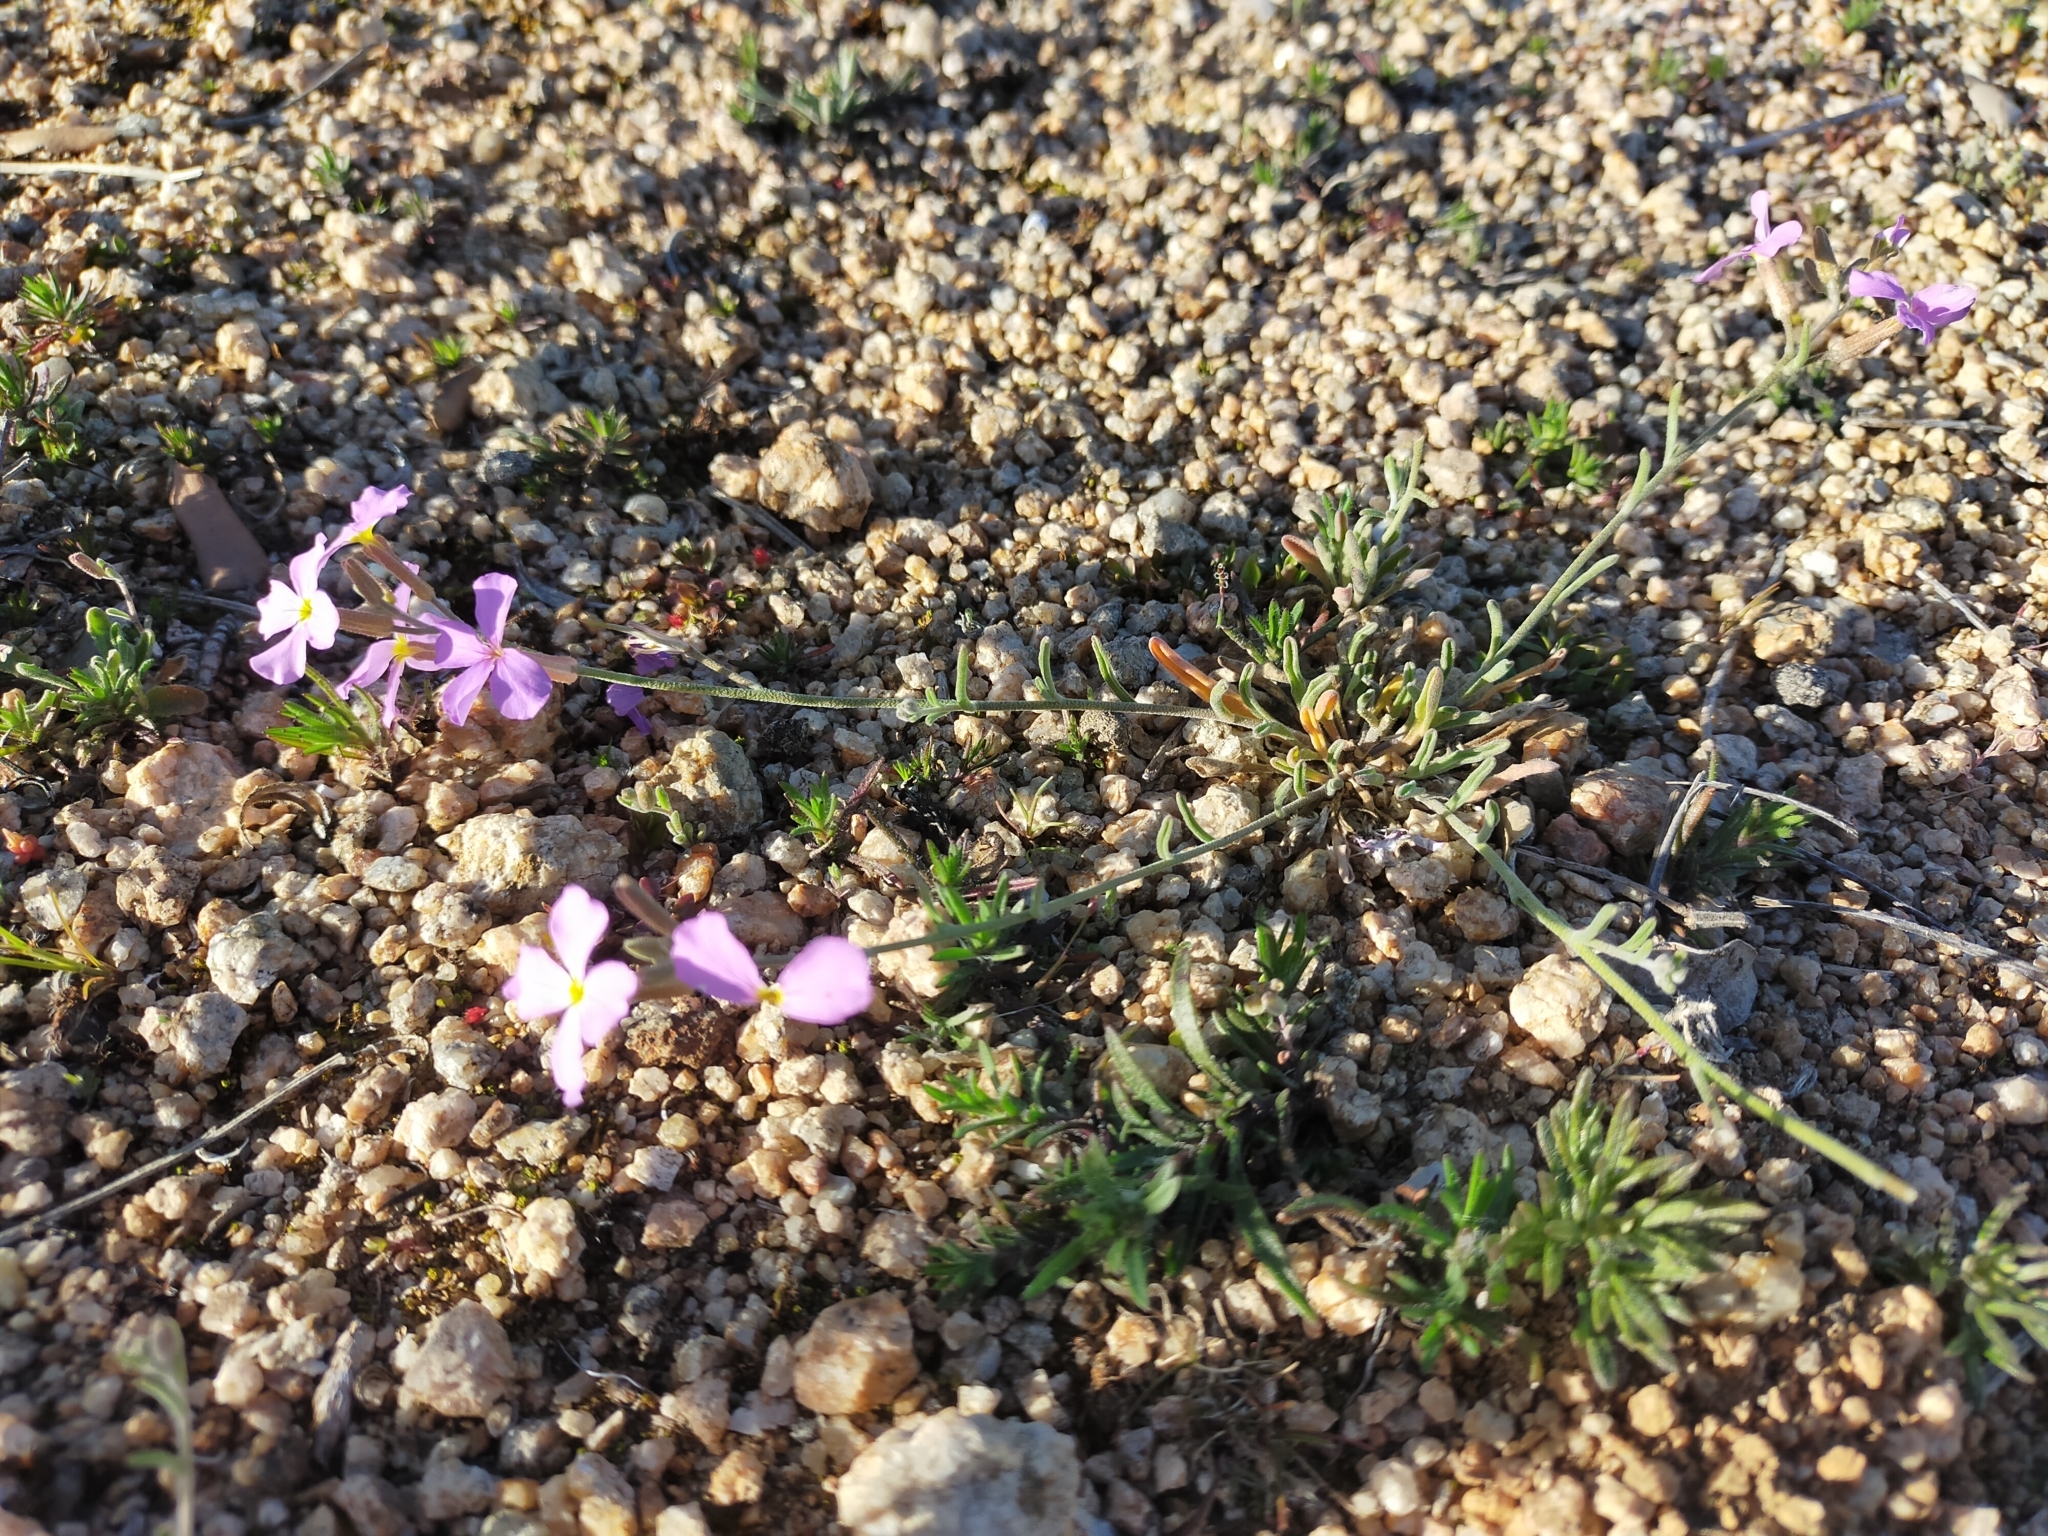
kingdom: Plantae
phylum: Tracheophyta
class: Magnoliopsida
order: Brassicales
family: Brassicaceae
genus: Marcuskochia
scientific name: Marcuskochia triloba
